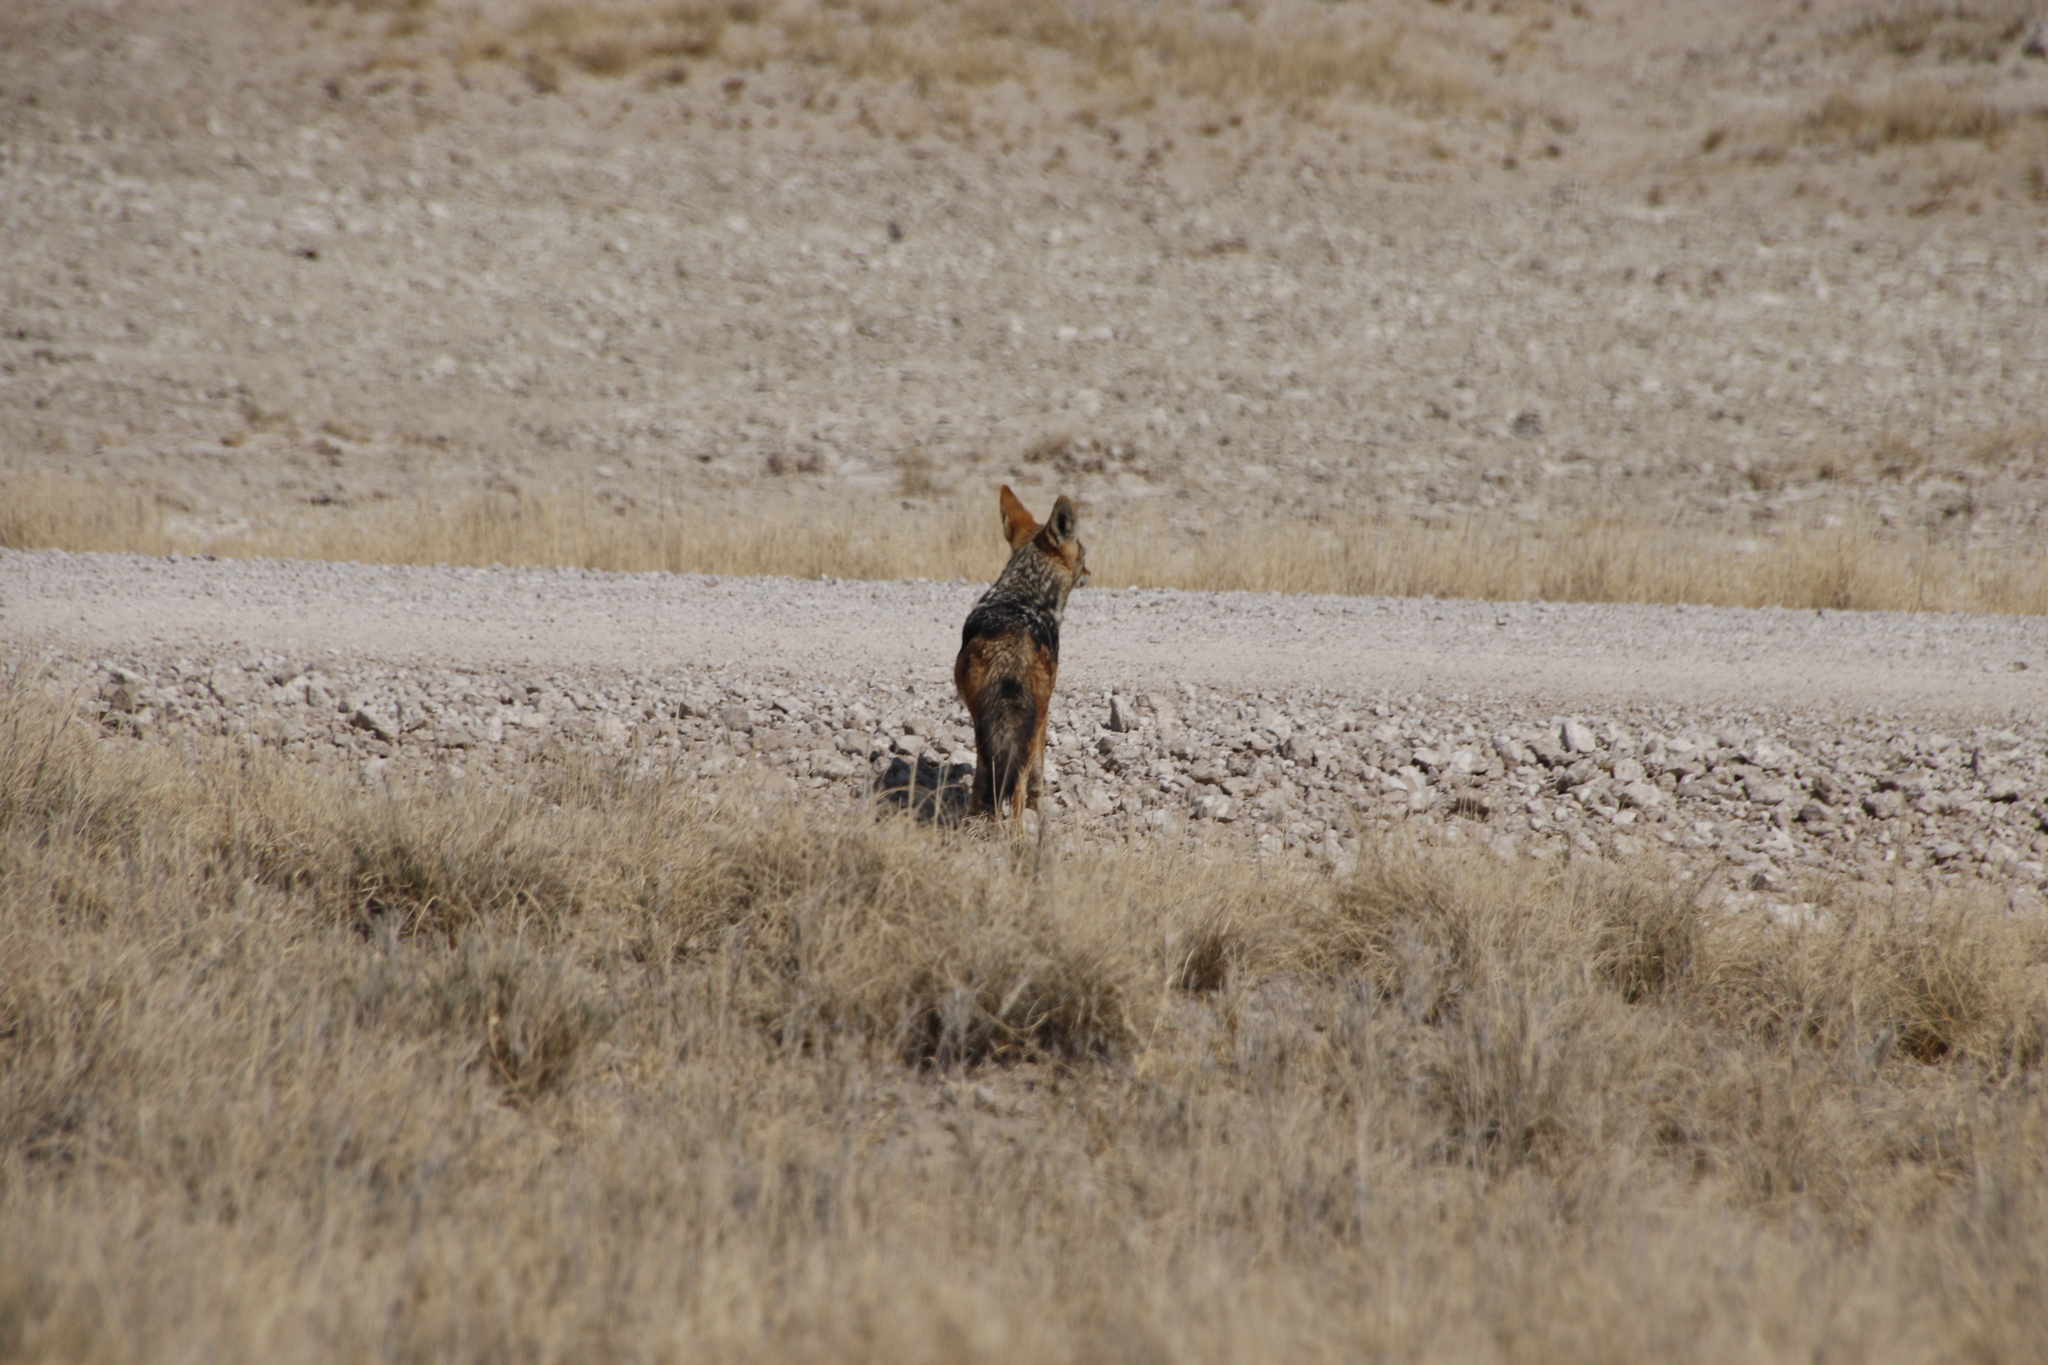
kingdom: Animalia
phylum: Chordata
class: Mammalia
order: Carnivora
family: Canidae
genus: Lupulella
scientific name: Lupulella
